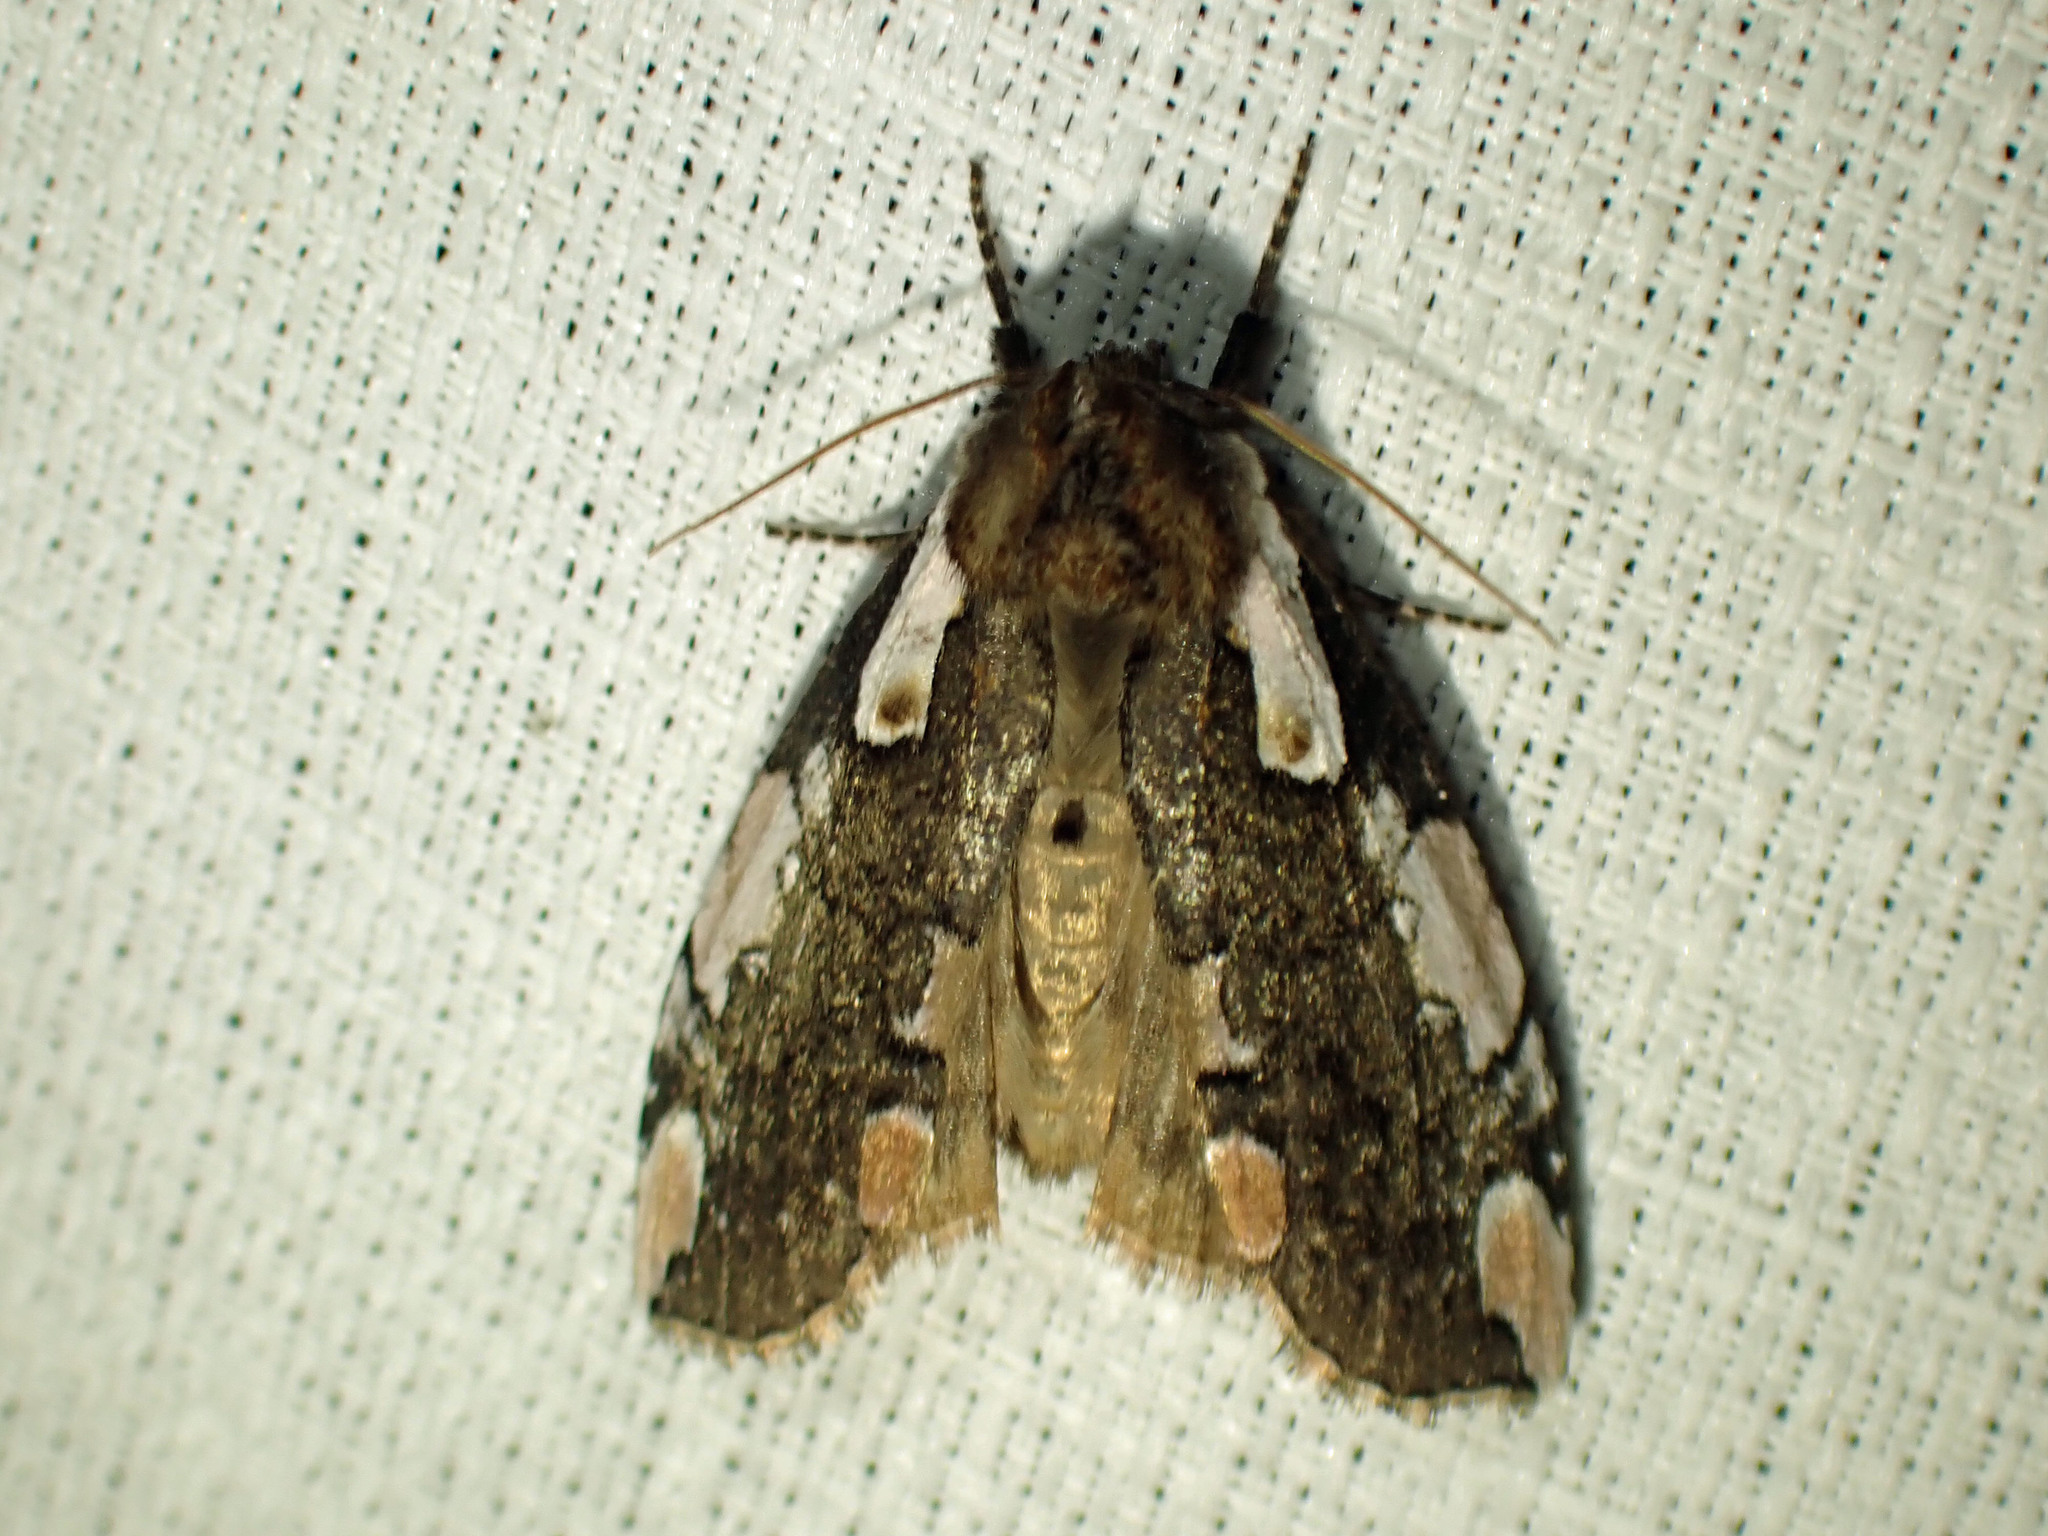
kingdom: Animalia
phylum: Arthropoda
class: Insecta
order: Lepidoptera
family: Drepanidae
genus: Euthyatira
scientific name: Euthyatira pudens
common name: Dogwood thyatirid moth
